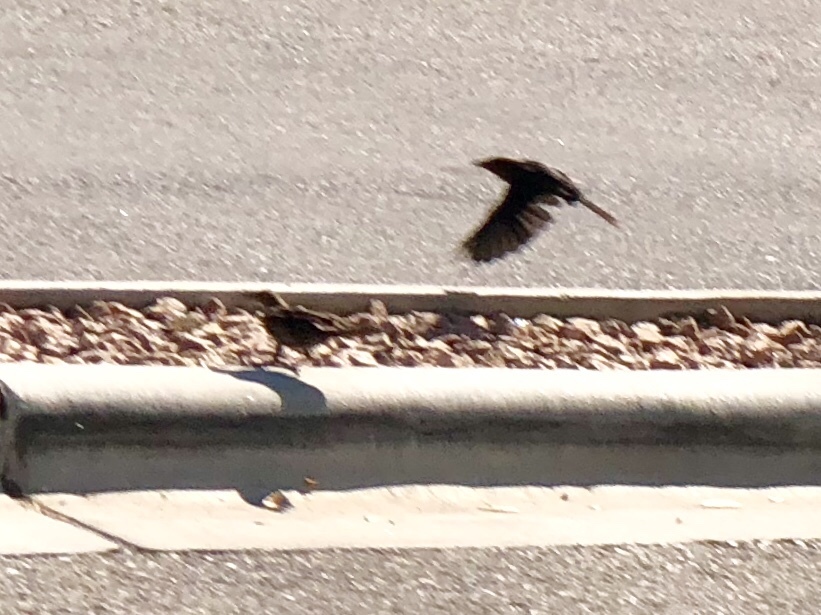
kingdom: Animalia
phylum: Chordata
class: Aves
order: Passeriformes
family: Icteridae
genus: Quiscalus
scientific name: Quiscalus mexicanus
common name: Great-tailed grackle
